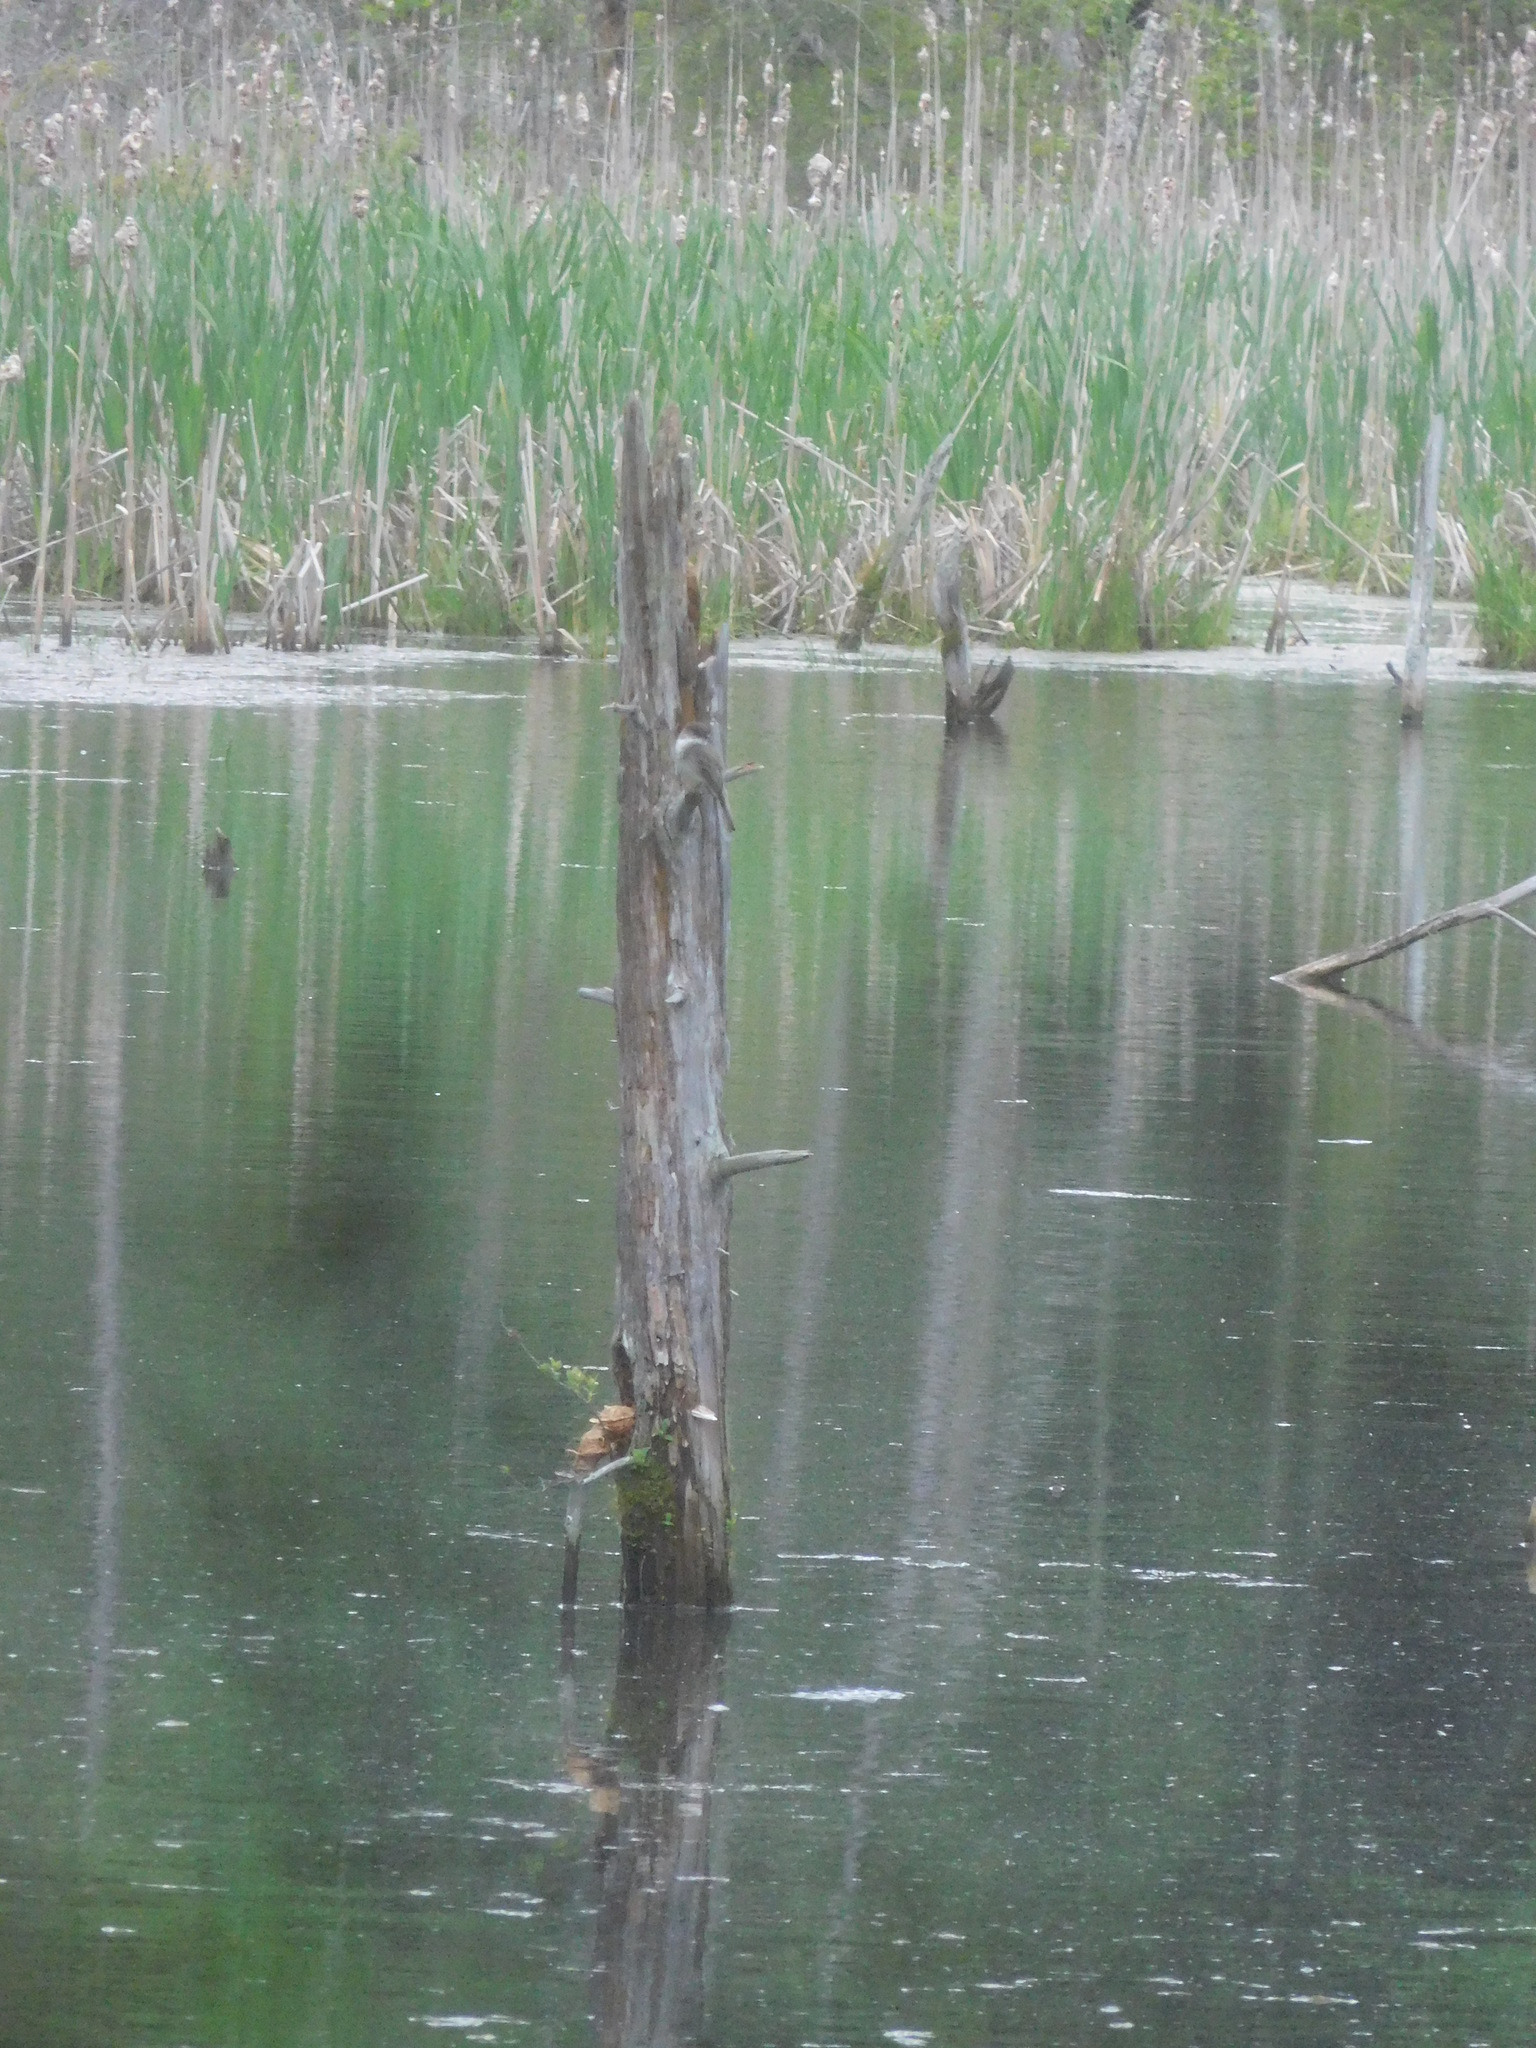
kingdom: Animalia
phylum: Chordata
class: Aves
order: Passeriformes
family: Tyrannidae
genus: Sayornis
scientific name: Sayornis phoebe
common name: Eastern phoebe
